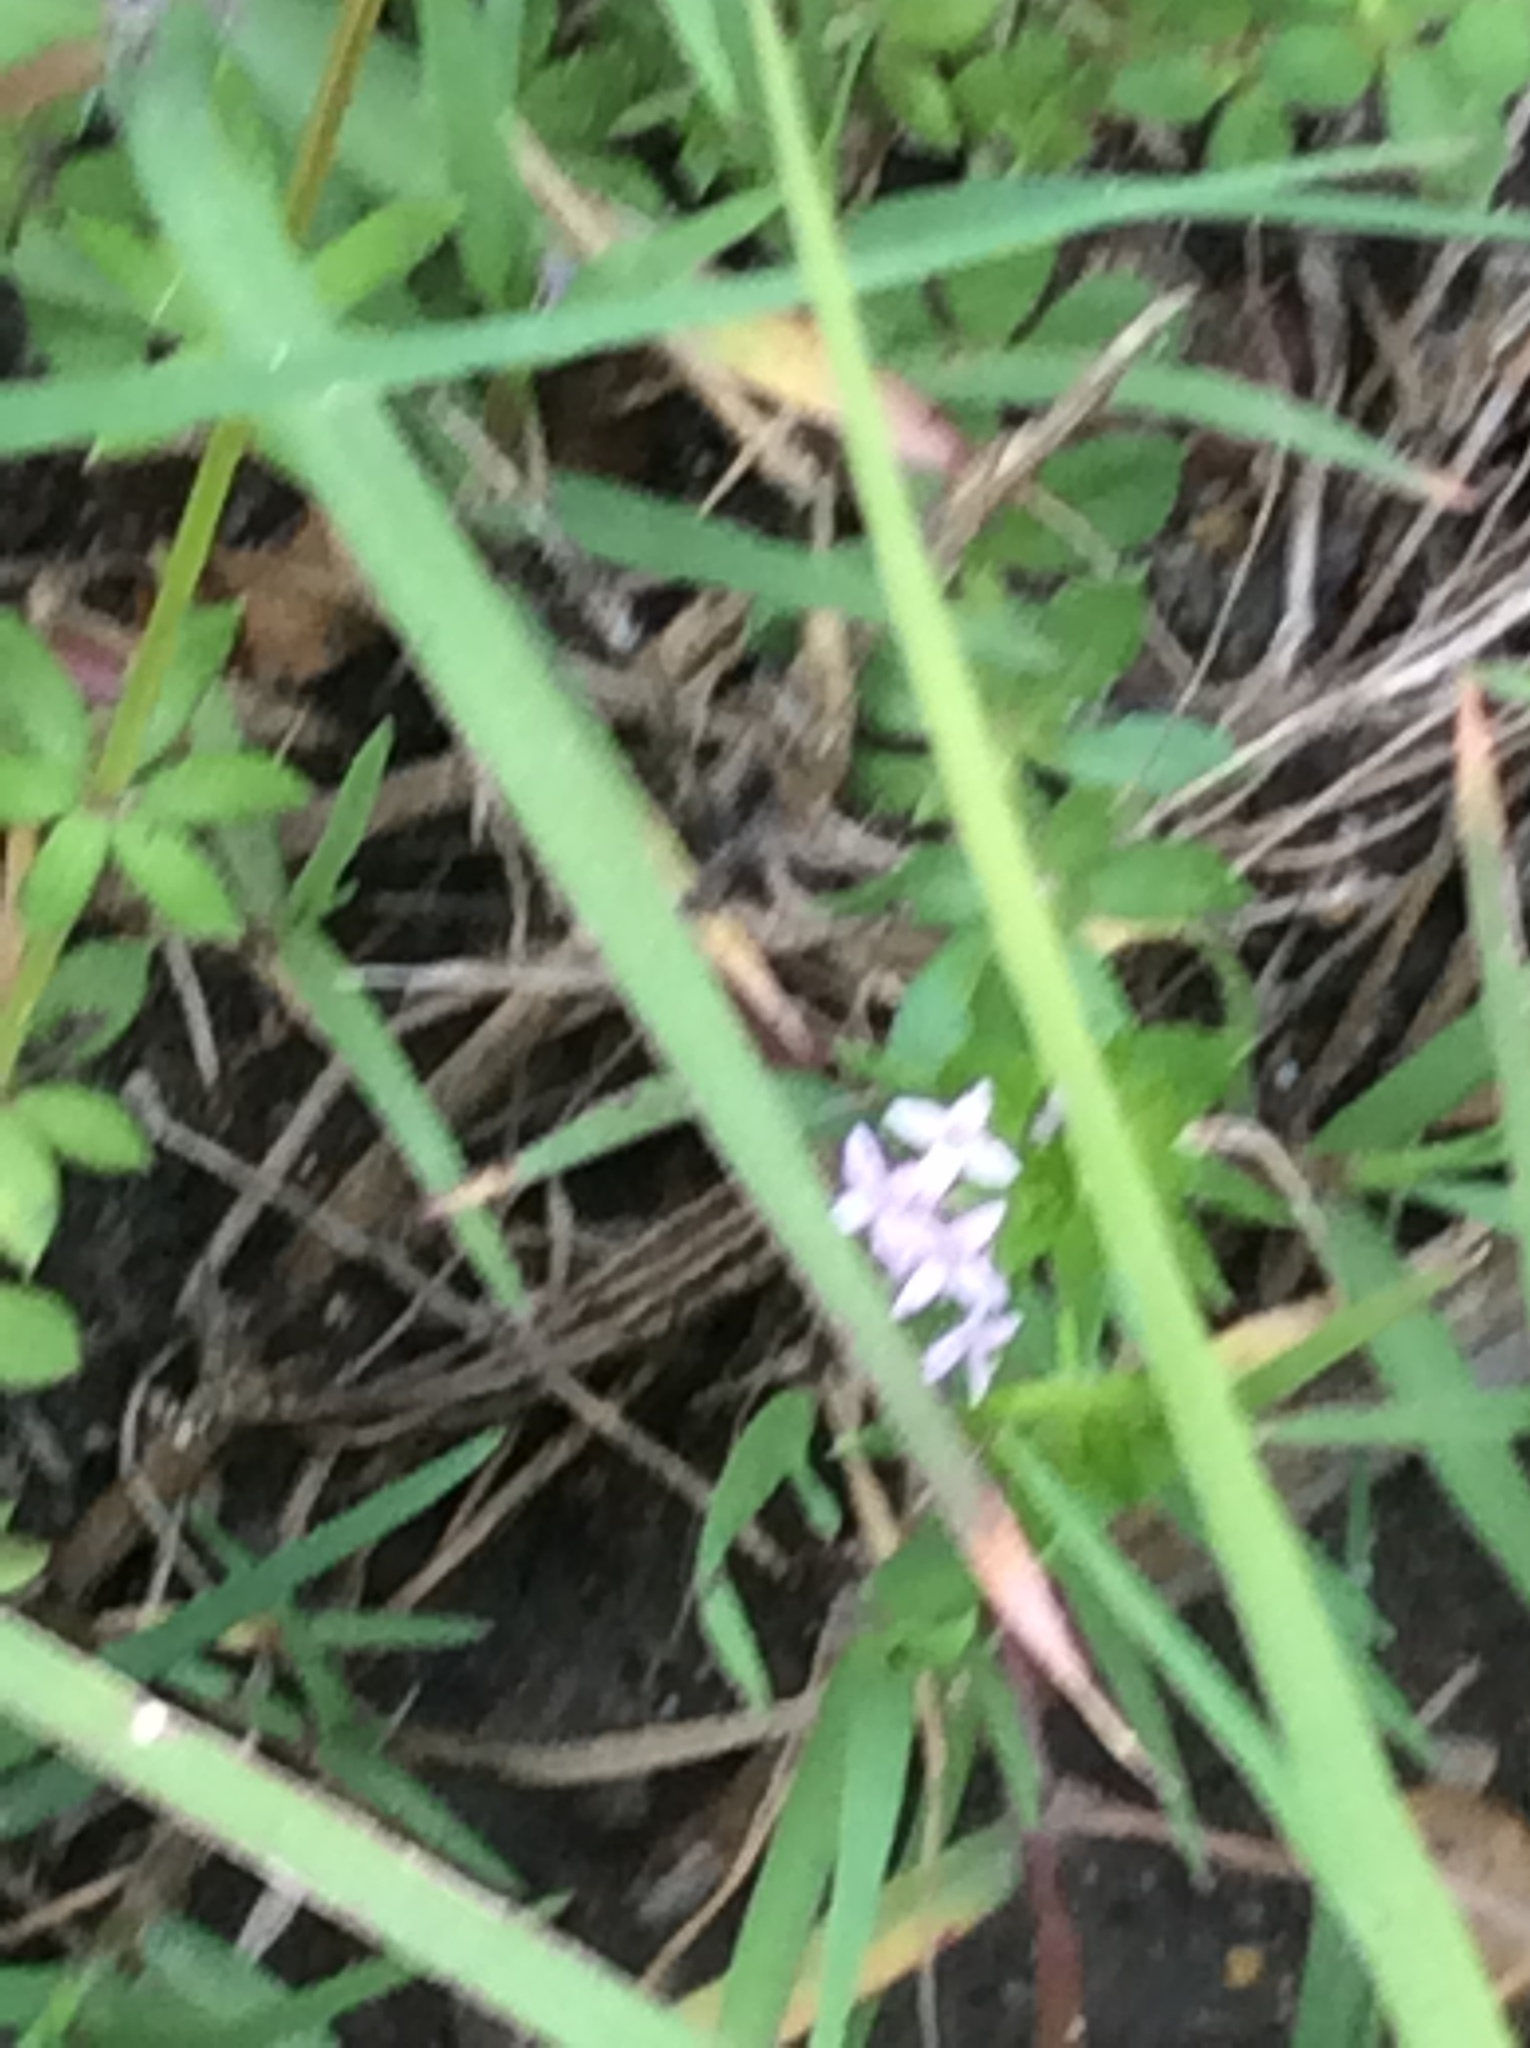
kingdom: Plantae
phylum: Tracheophyta
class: Magnoliopsida
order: Gentianales
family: Rubiaceae
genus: Sherardia
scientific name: Sherardia arvensis
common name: Field madder
